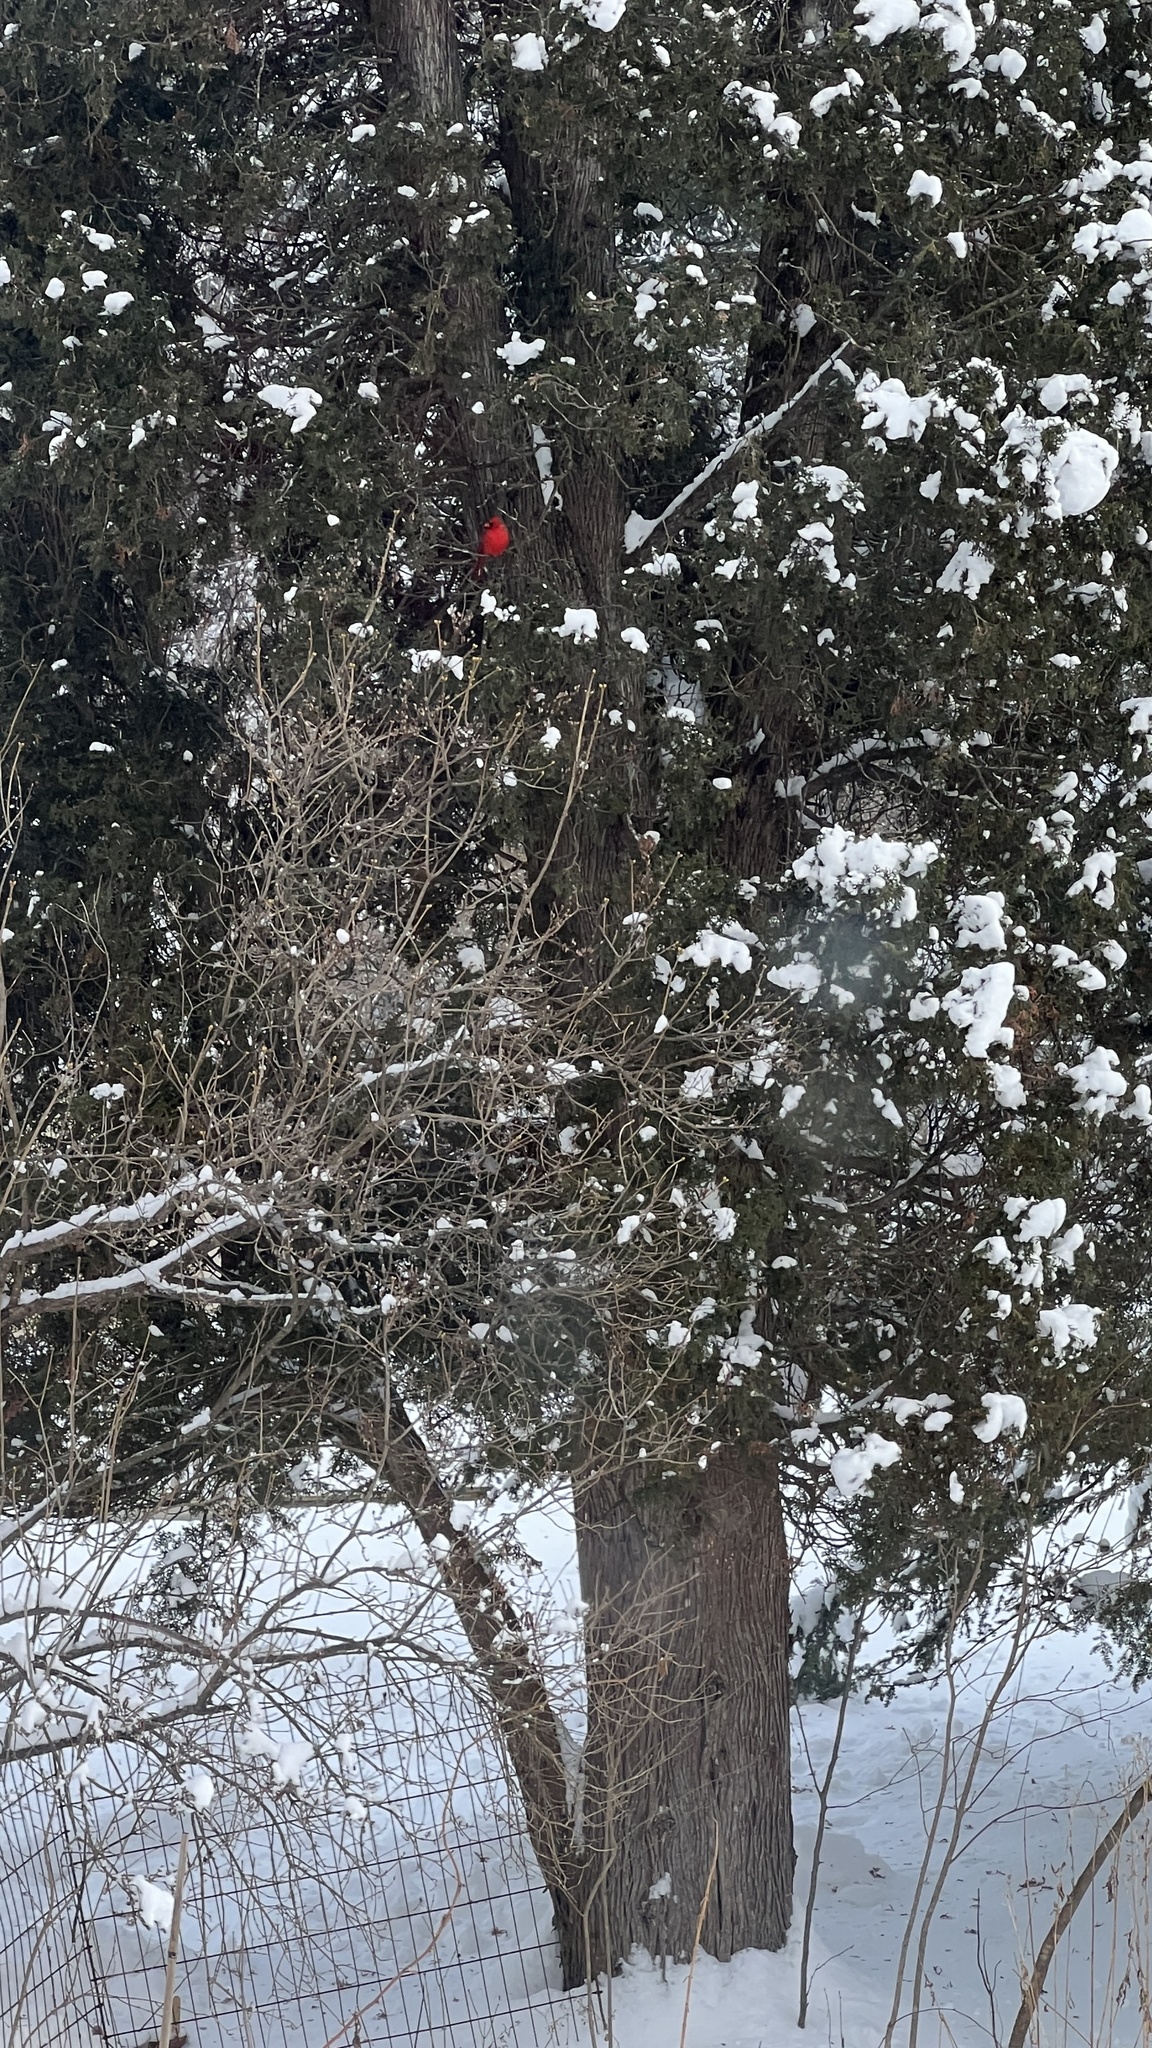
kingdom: Animalia
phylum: Chordata
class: Aves
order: Passeriformes
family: Cardinalidae
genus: Cardinalis
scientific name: Cardinalis cardinalis
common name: Northern cardinal
